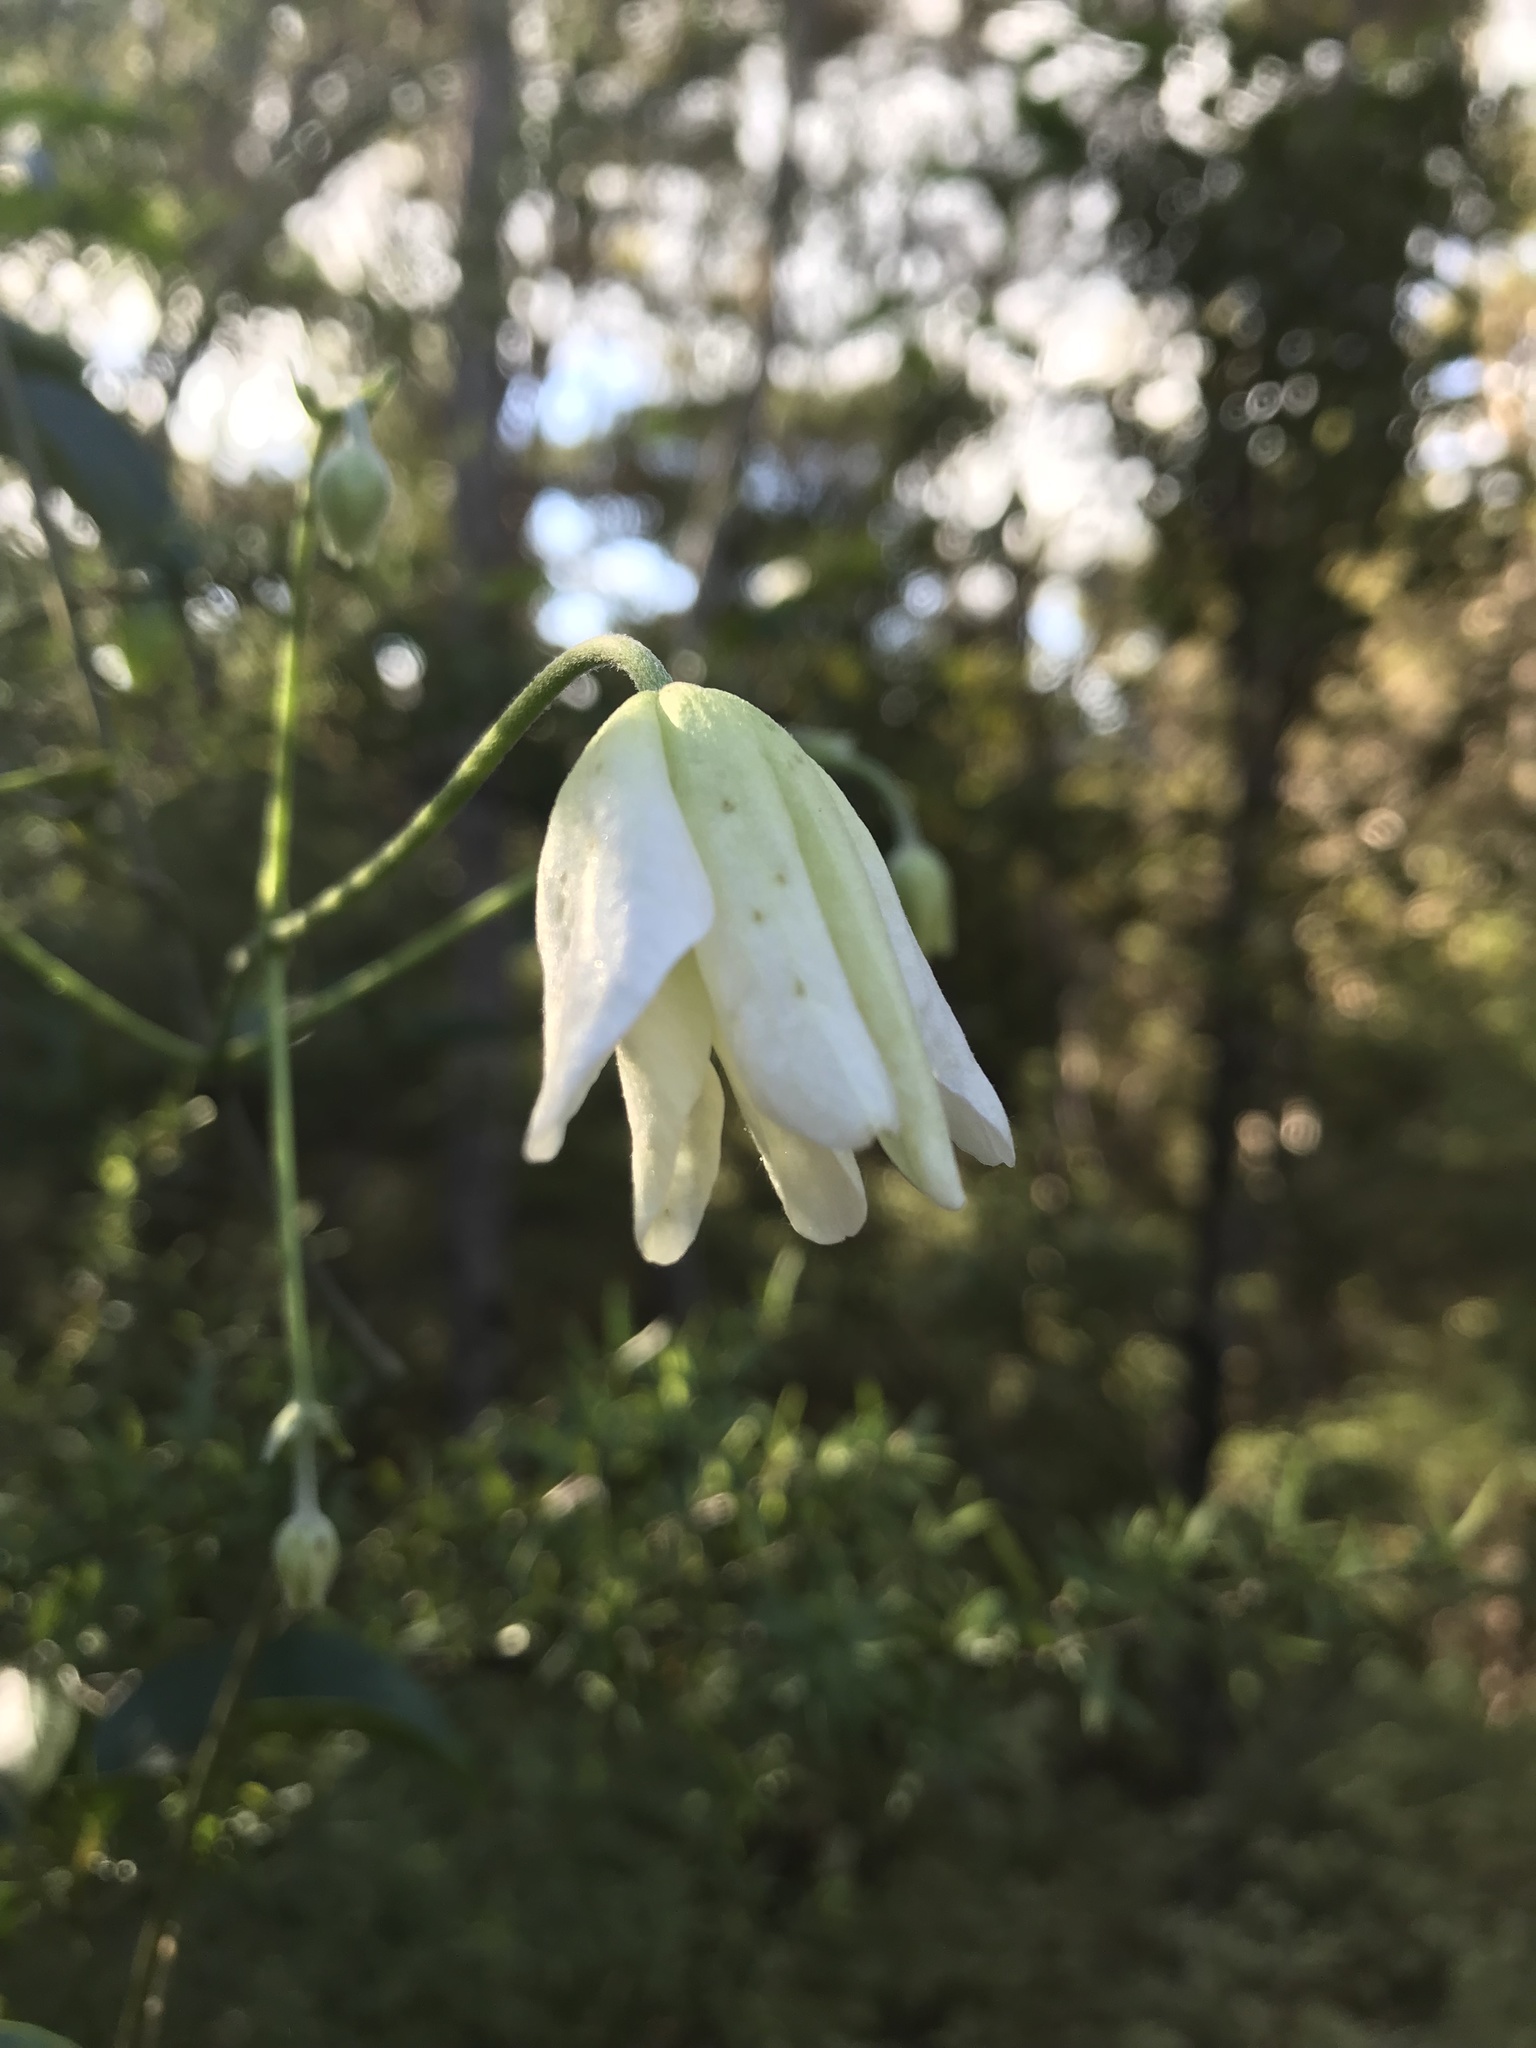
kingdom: Plantae
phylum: Tracheophyta
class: Magnoliopsida
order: Ranunculales
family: Ranunculaceae
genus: Clematis
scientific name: Clematis paniculata
